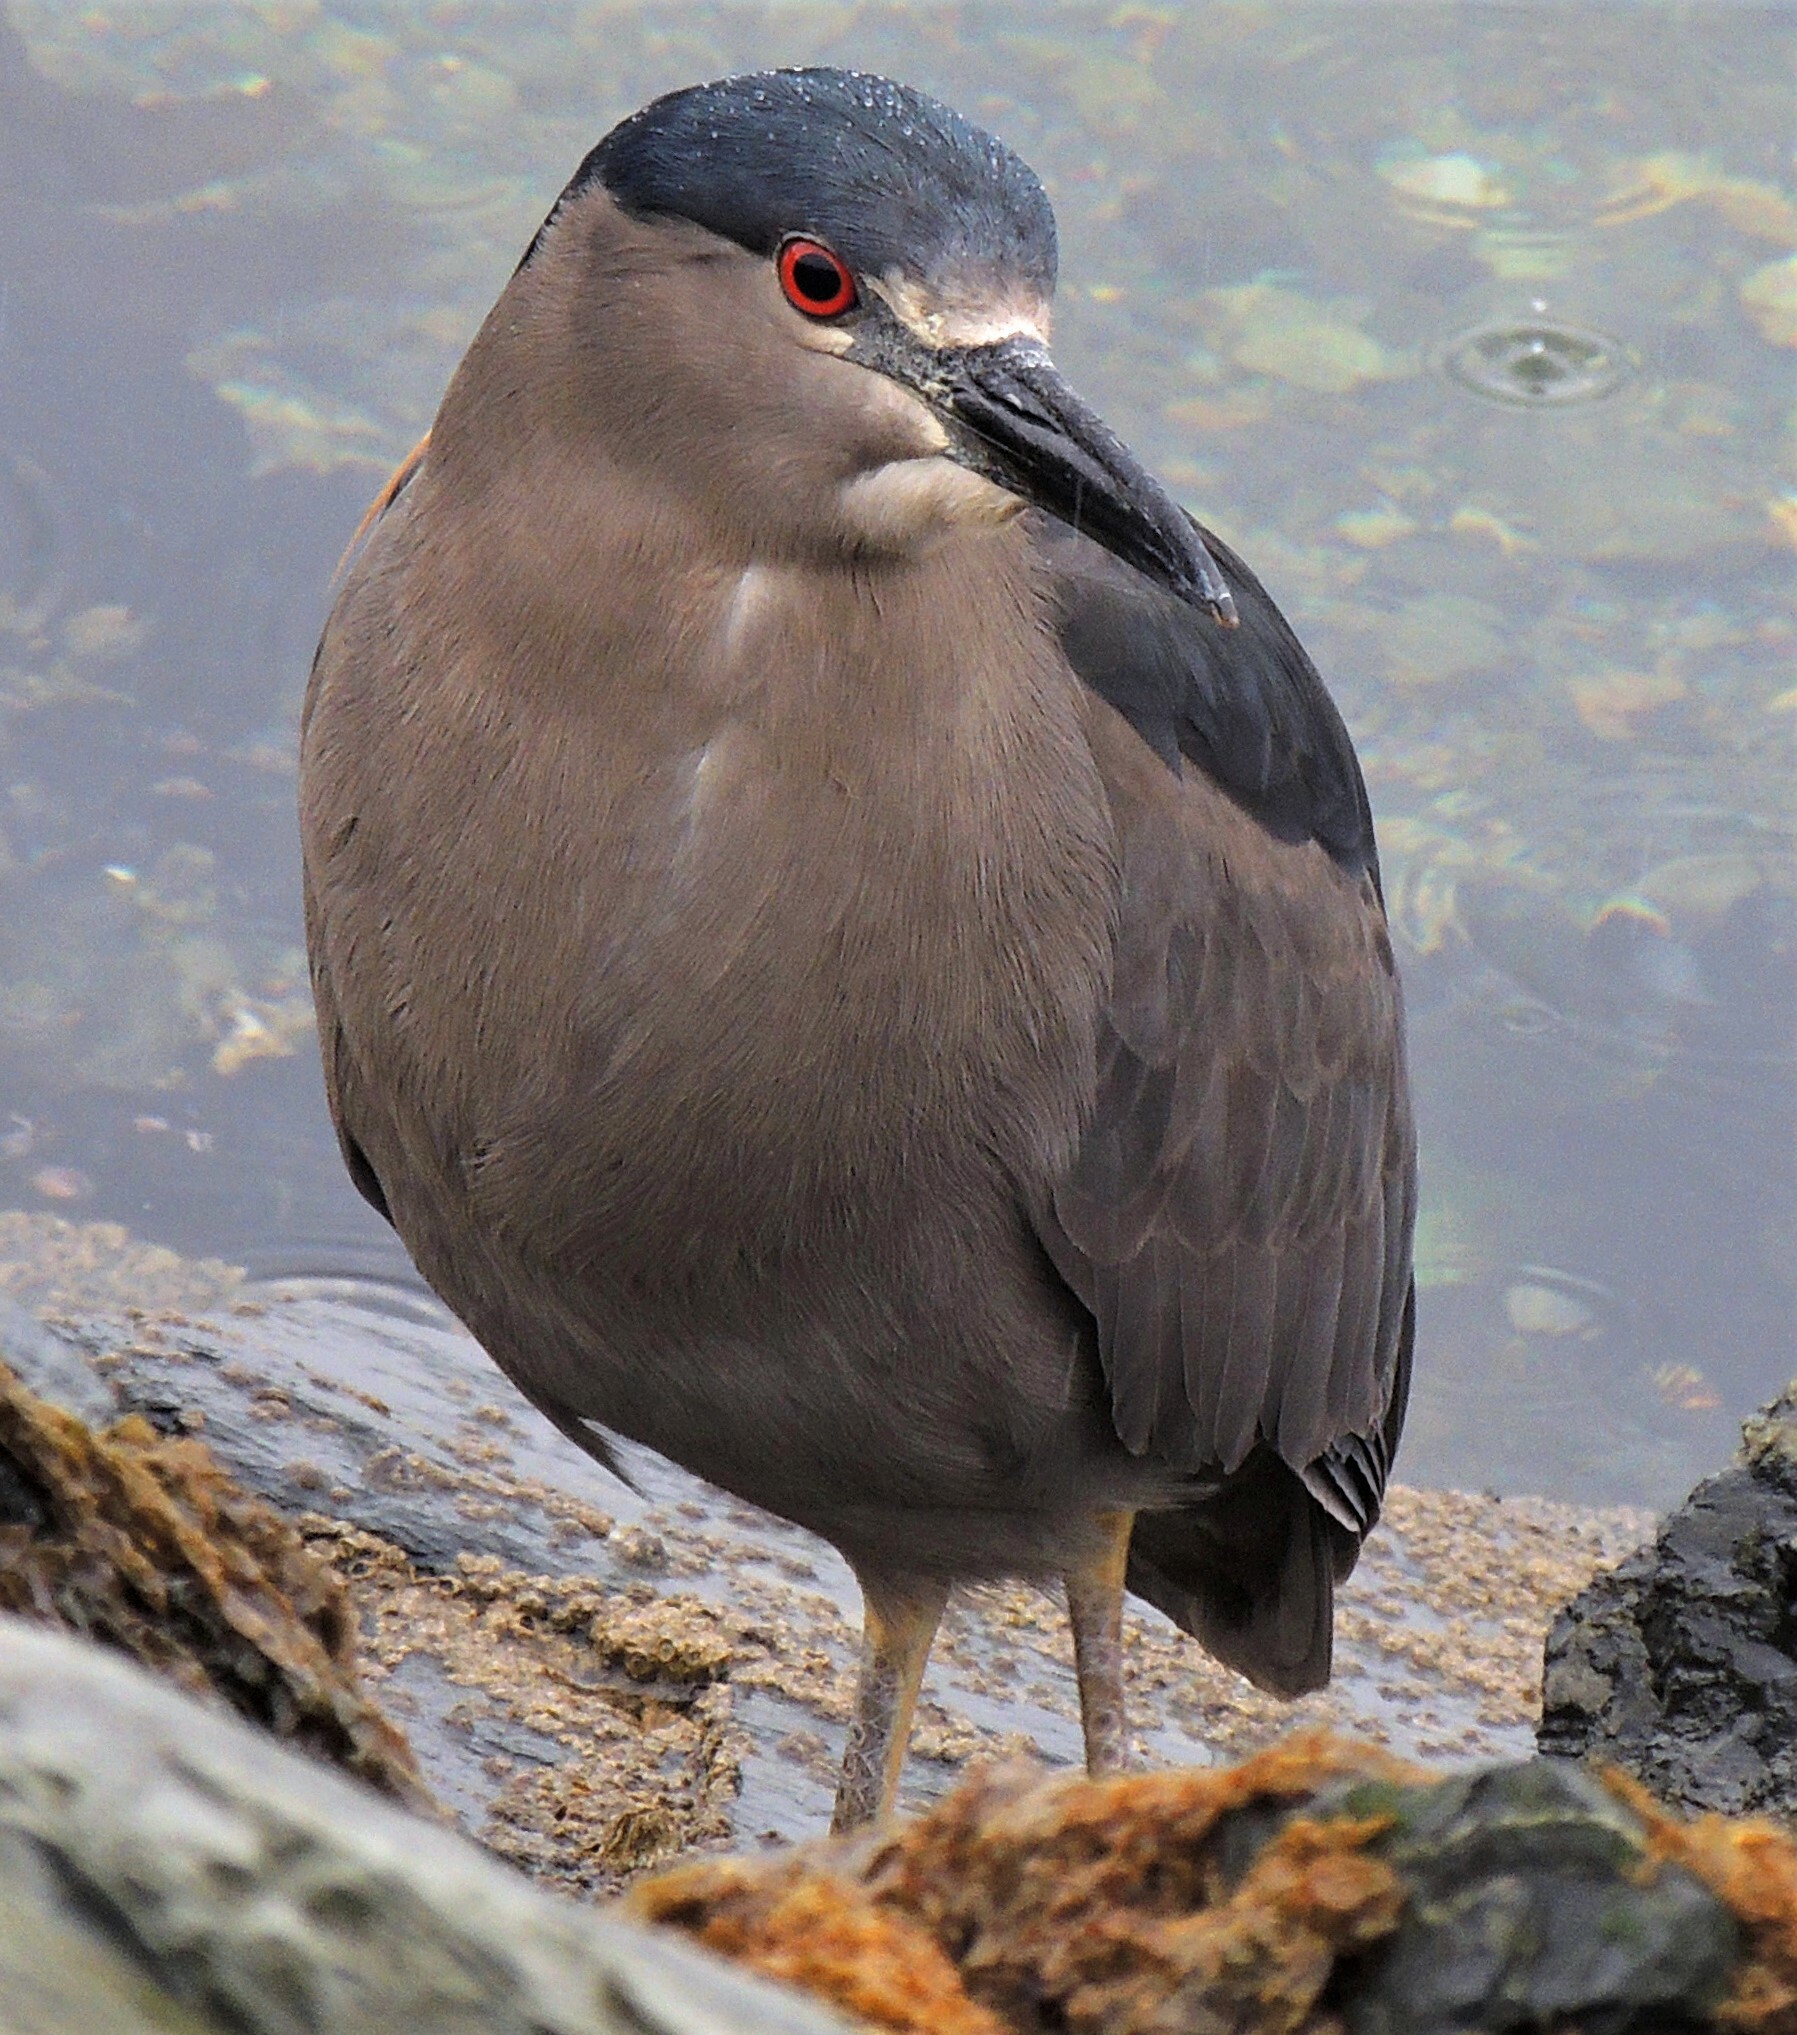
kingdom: Animalia
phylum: Chordata
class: Aves
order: Pelecaniformes
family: Ardeidae
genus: Nycticorax
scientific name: Nycticorax nycticorax
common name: Black-crowned night heron
